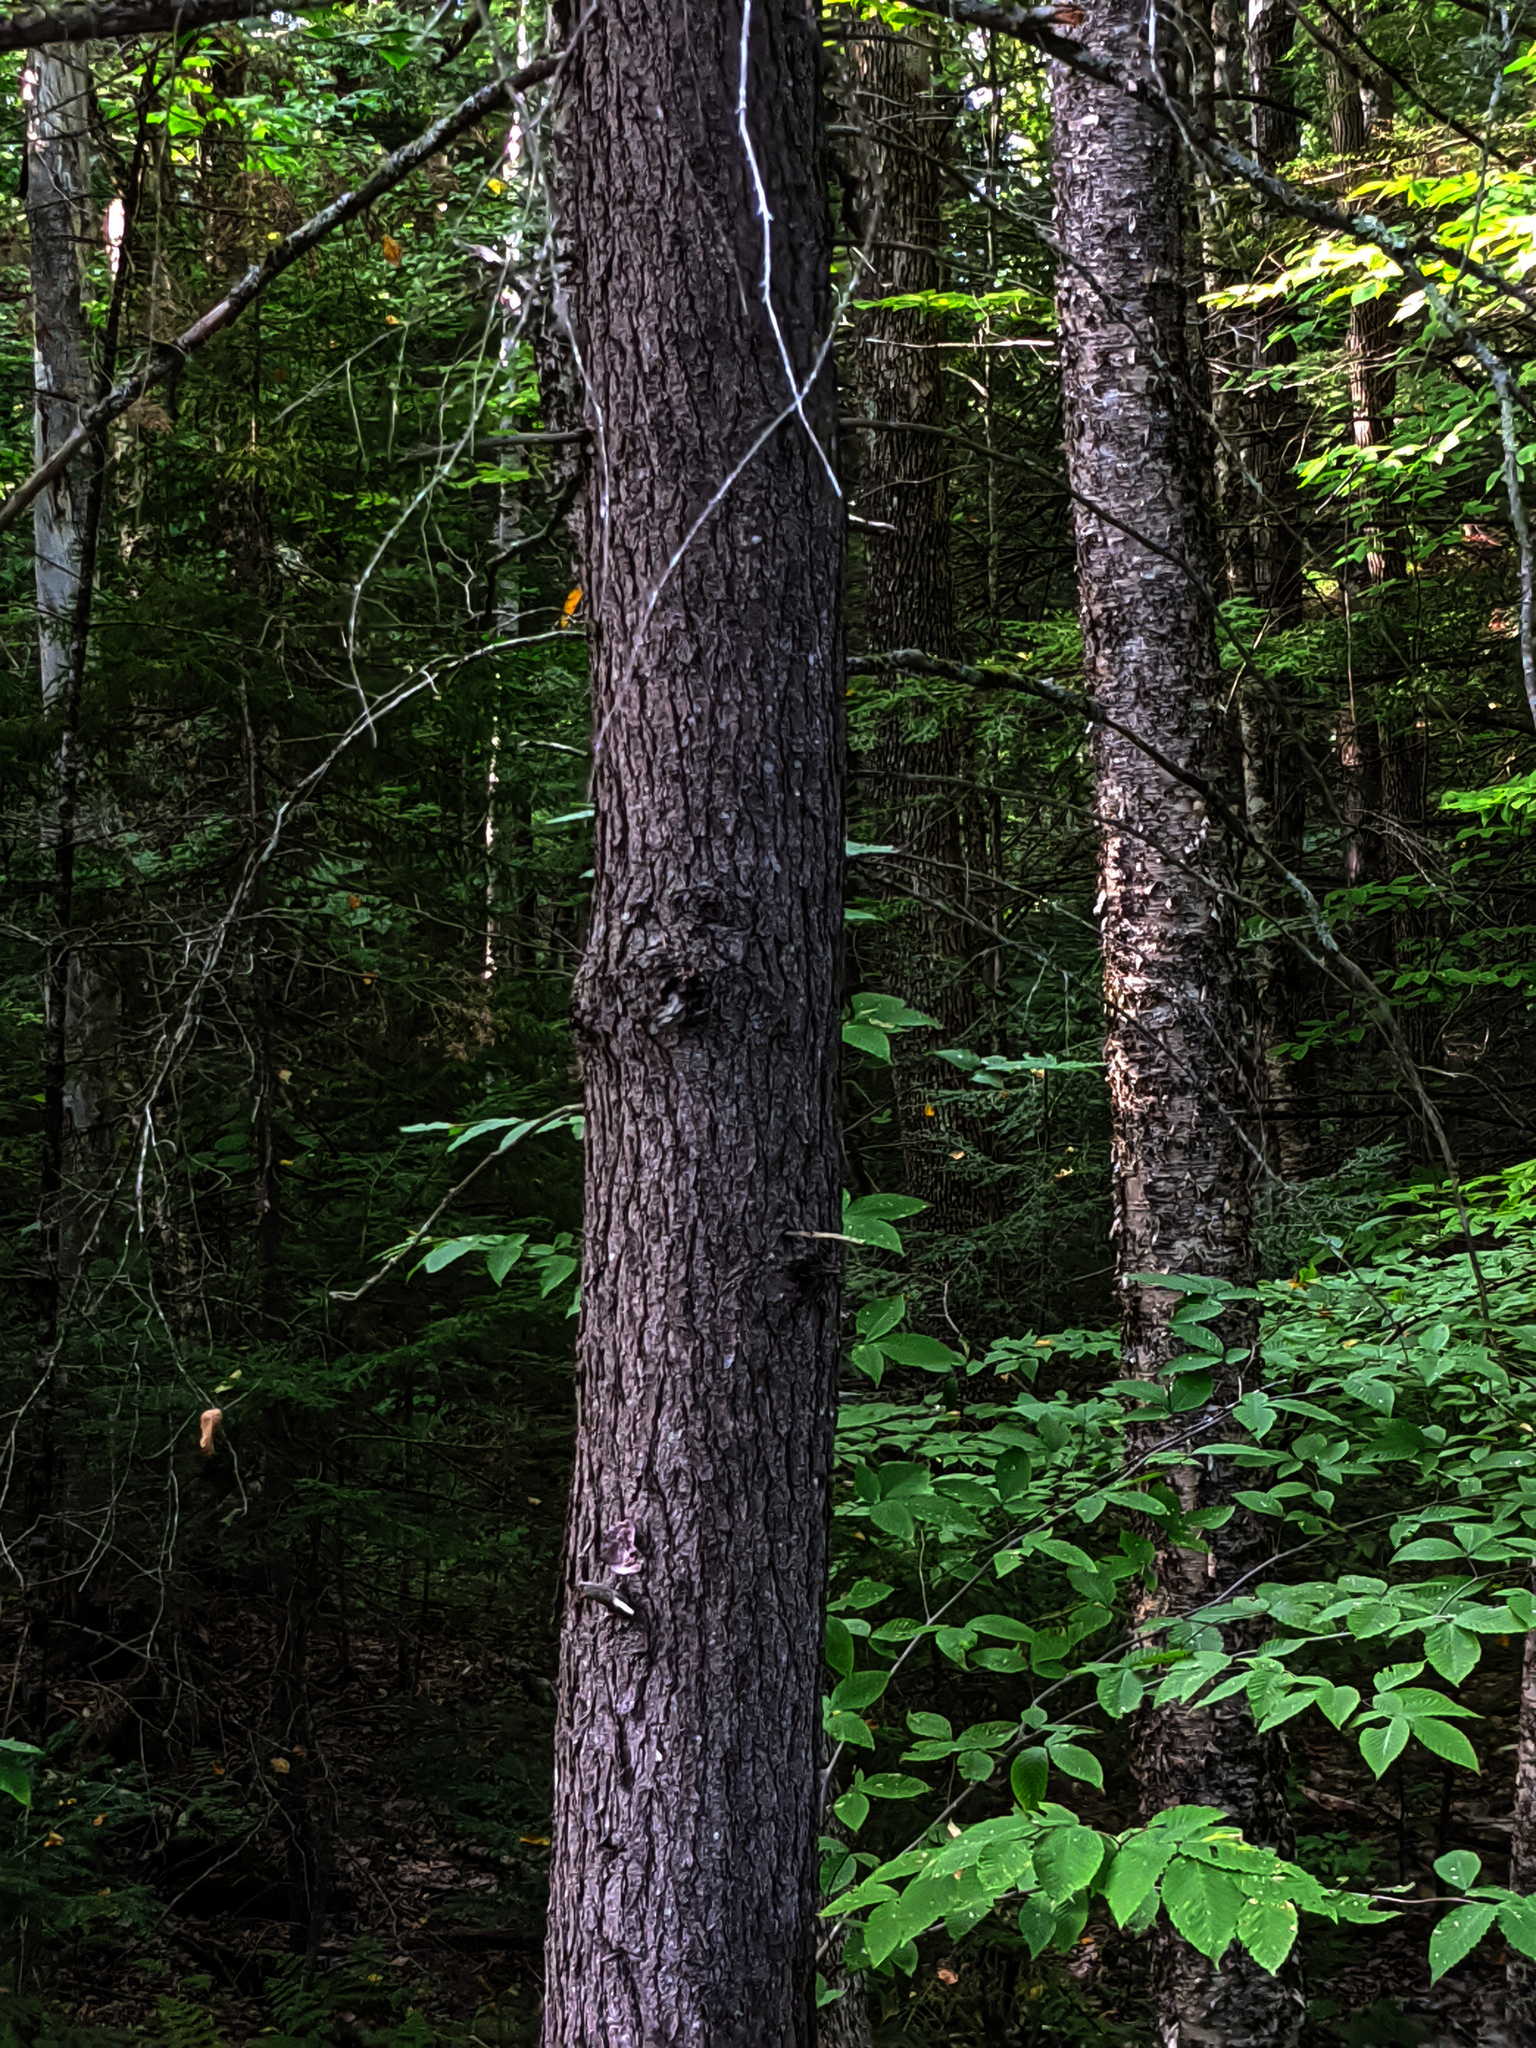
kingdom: Plantae
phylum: Tracheophyta
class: Pinopsida
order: Pinales
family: Pinaceae
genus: Tsuga
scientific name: Tsuga canadensis
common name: Eastern hemlock
